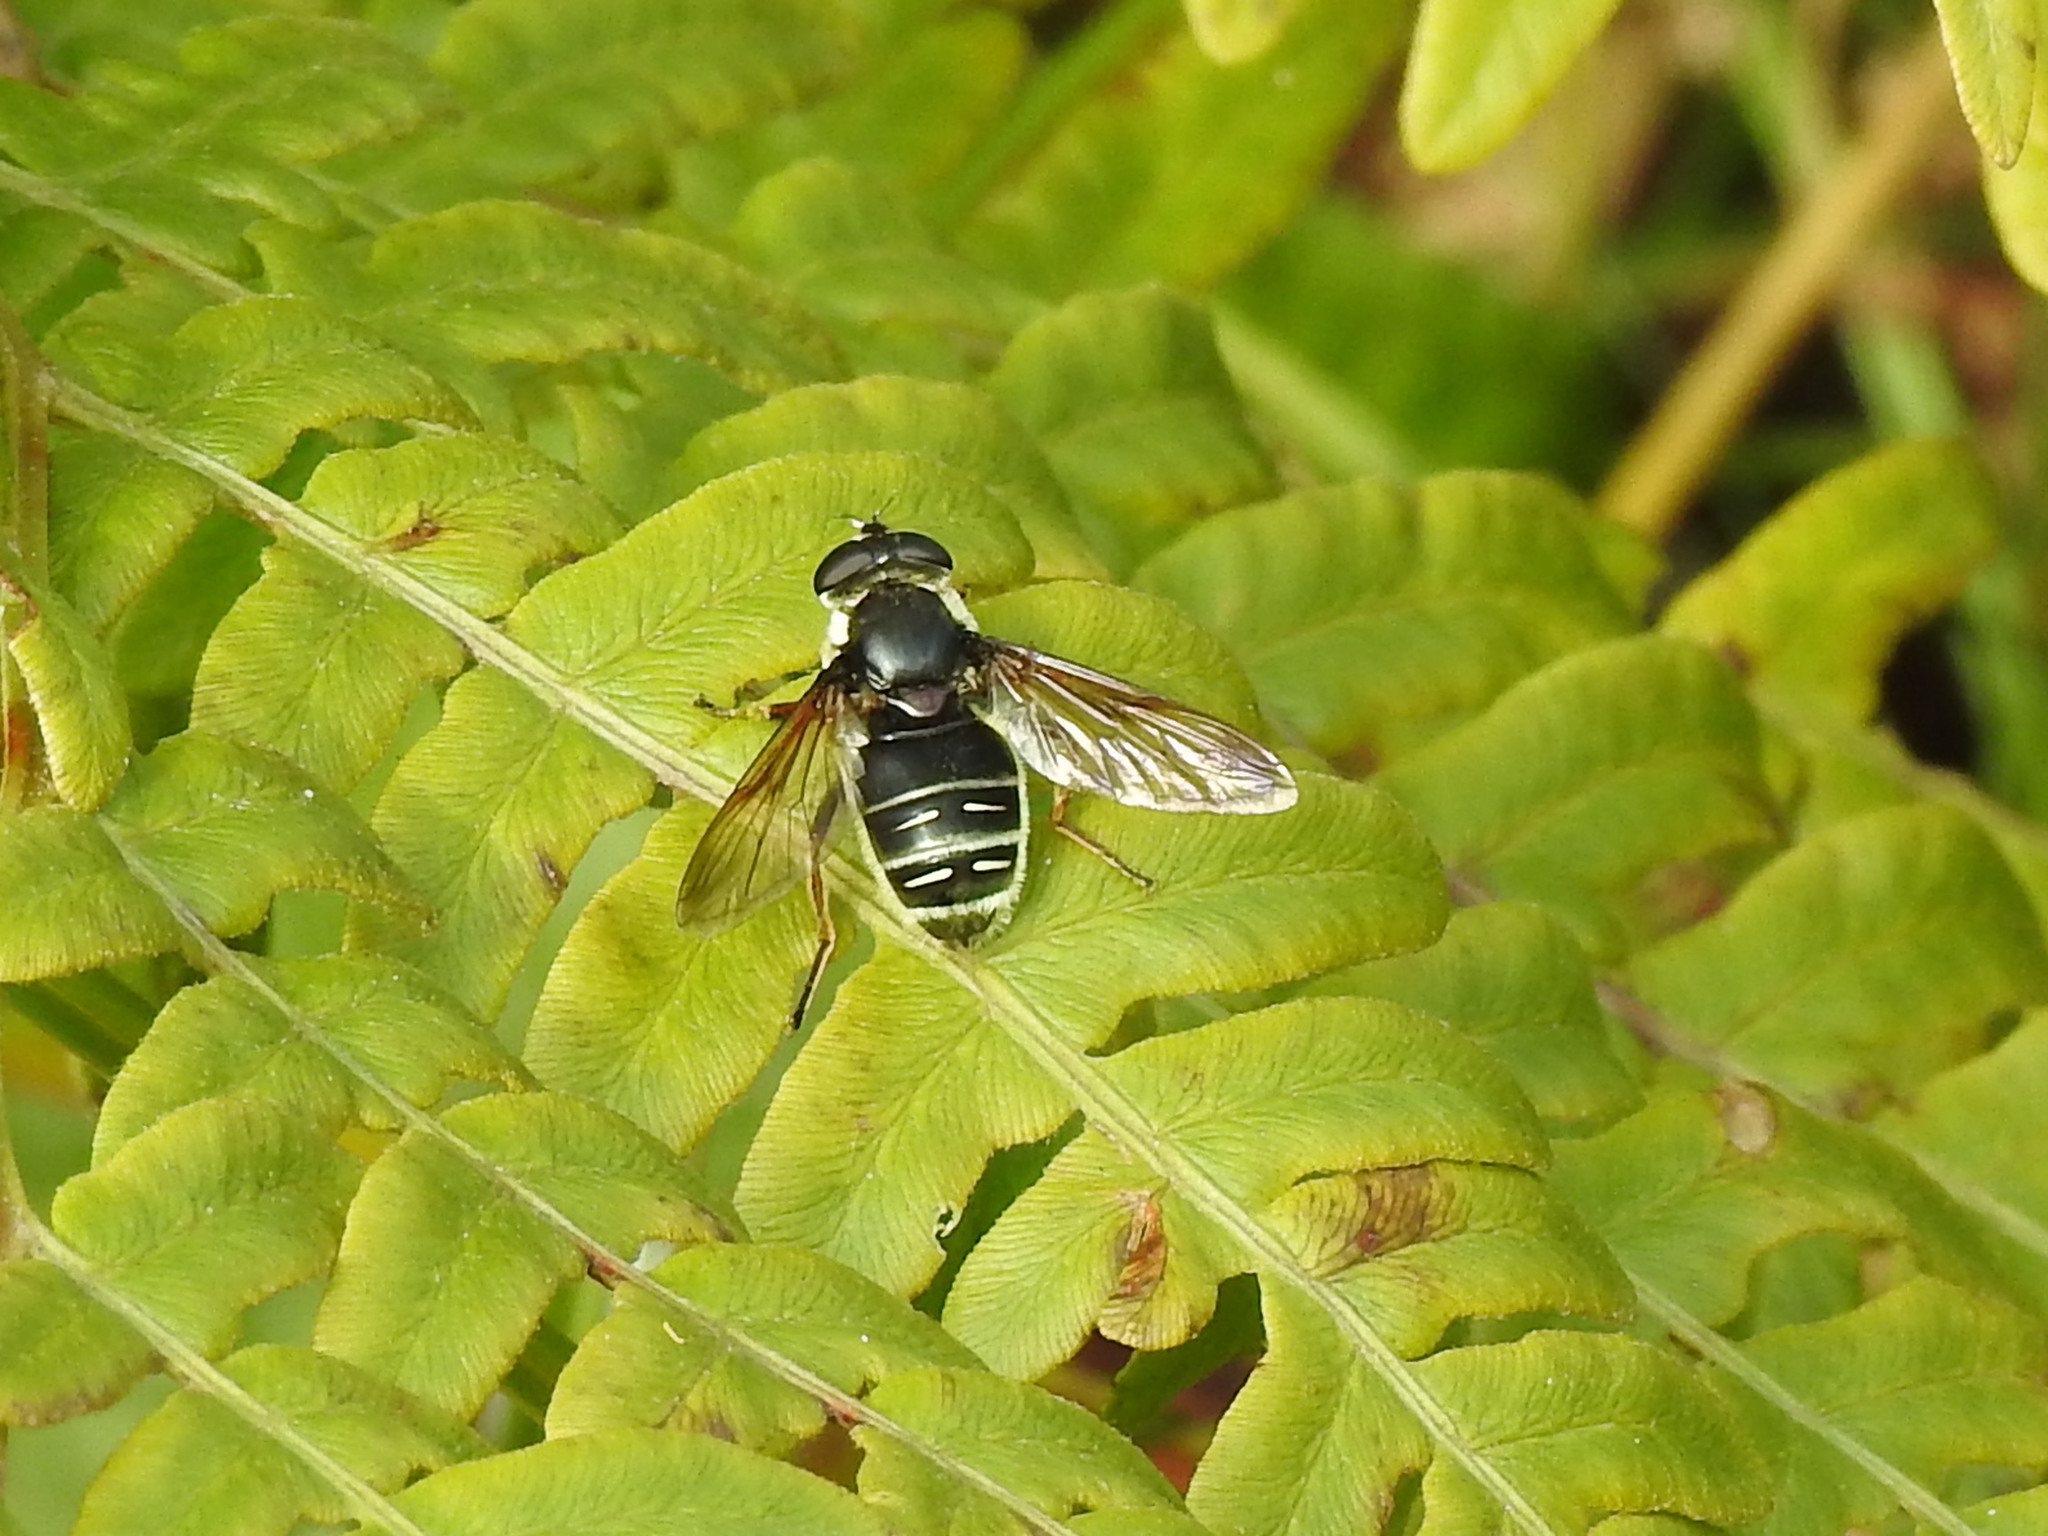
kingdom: Animalia
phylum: Arthropoda
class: Insecta
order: Diptera
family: Syrphidae
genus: Sericomyia
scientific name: Sericomyia militaris
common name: Narrow-banded pond fly
